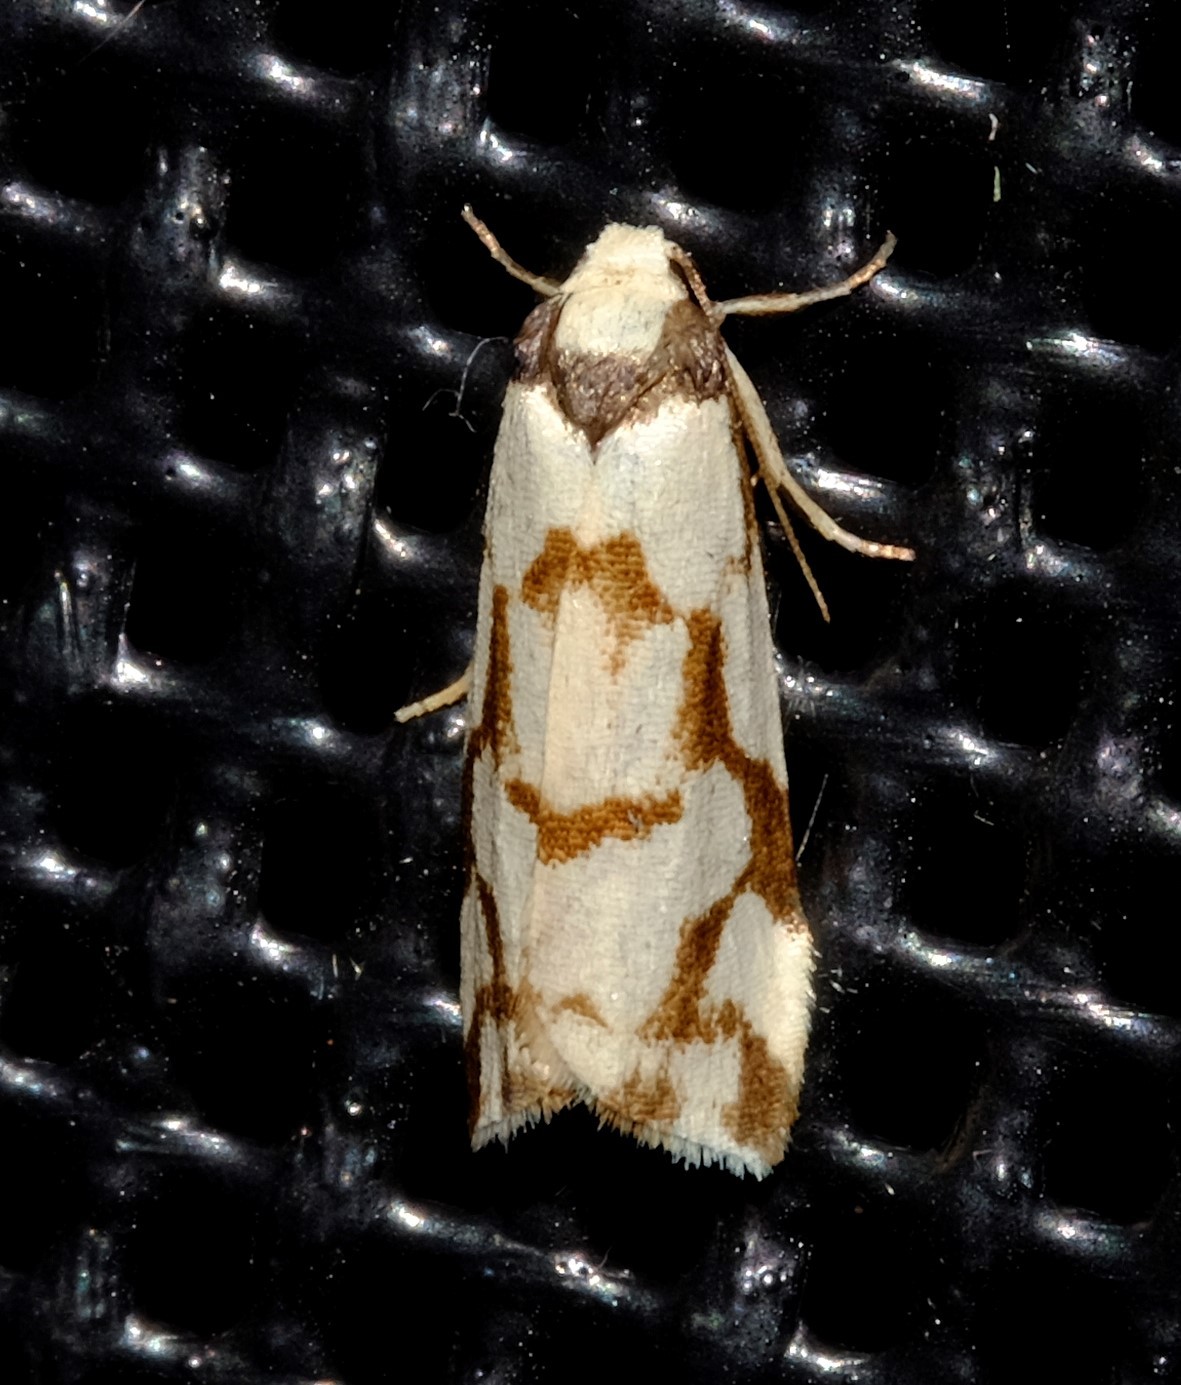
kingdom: Animalia
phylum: Arthropoda
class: Insecta
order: Lepidoptera
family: Erebidae
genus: Scaptesyle
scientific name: Scaptesyle dichotoma
